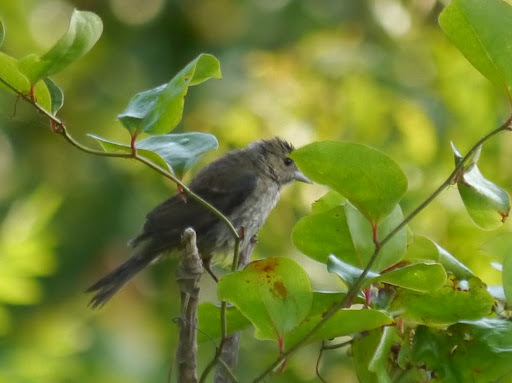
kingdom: Animalia
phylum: Chordata
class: Aves
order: Passeriformes
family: Cardinalidae
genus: Passerina
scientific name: Passerina cyanea
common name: Indigo bunting
